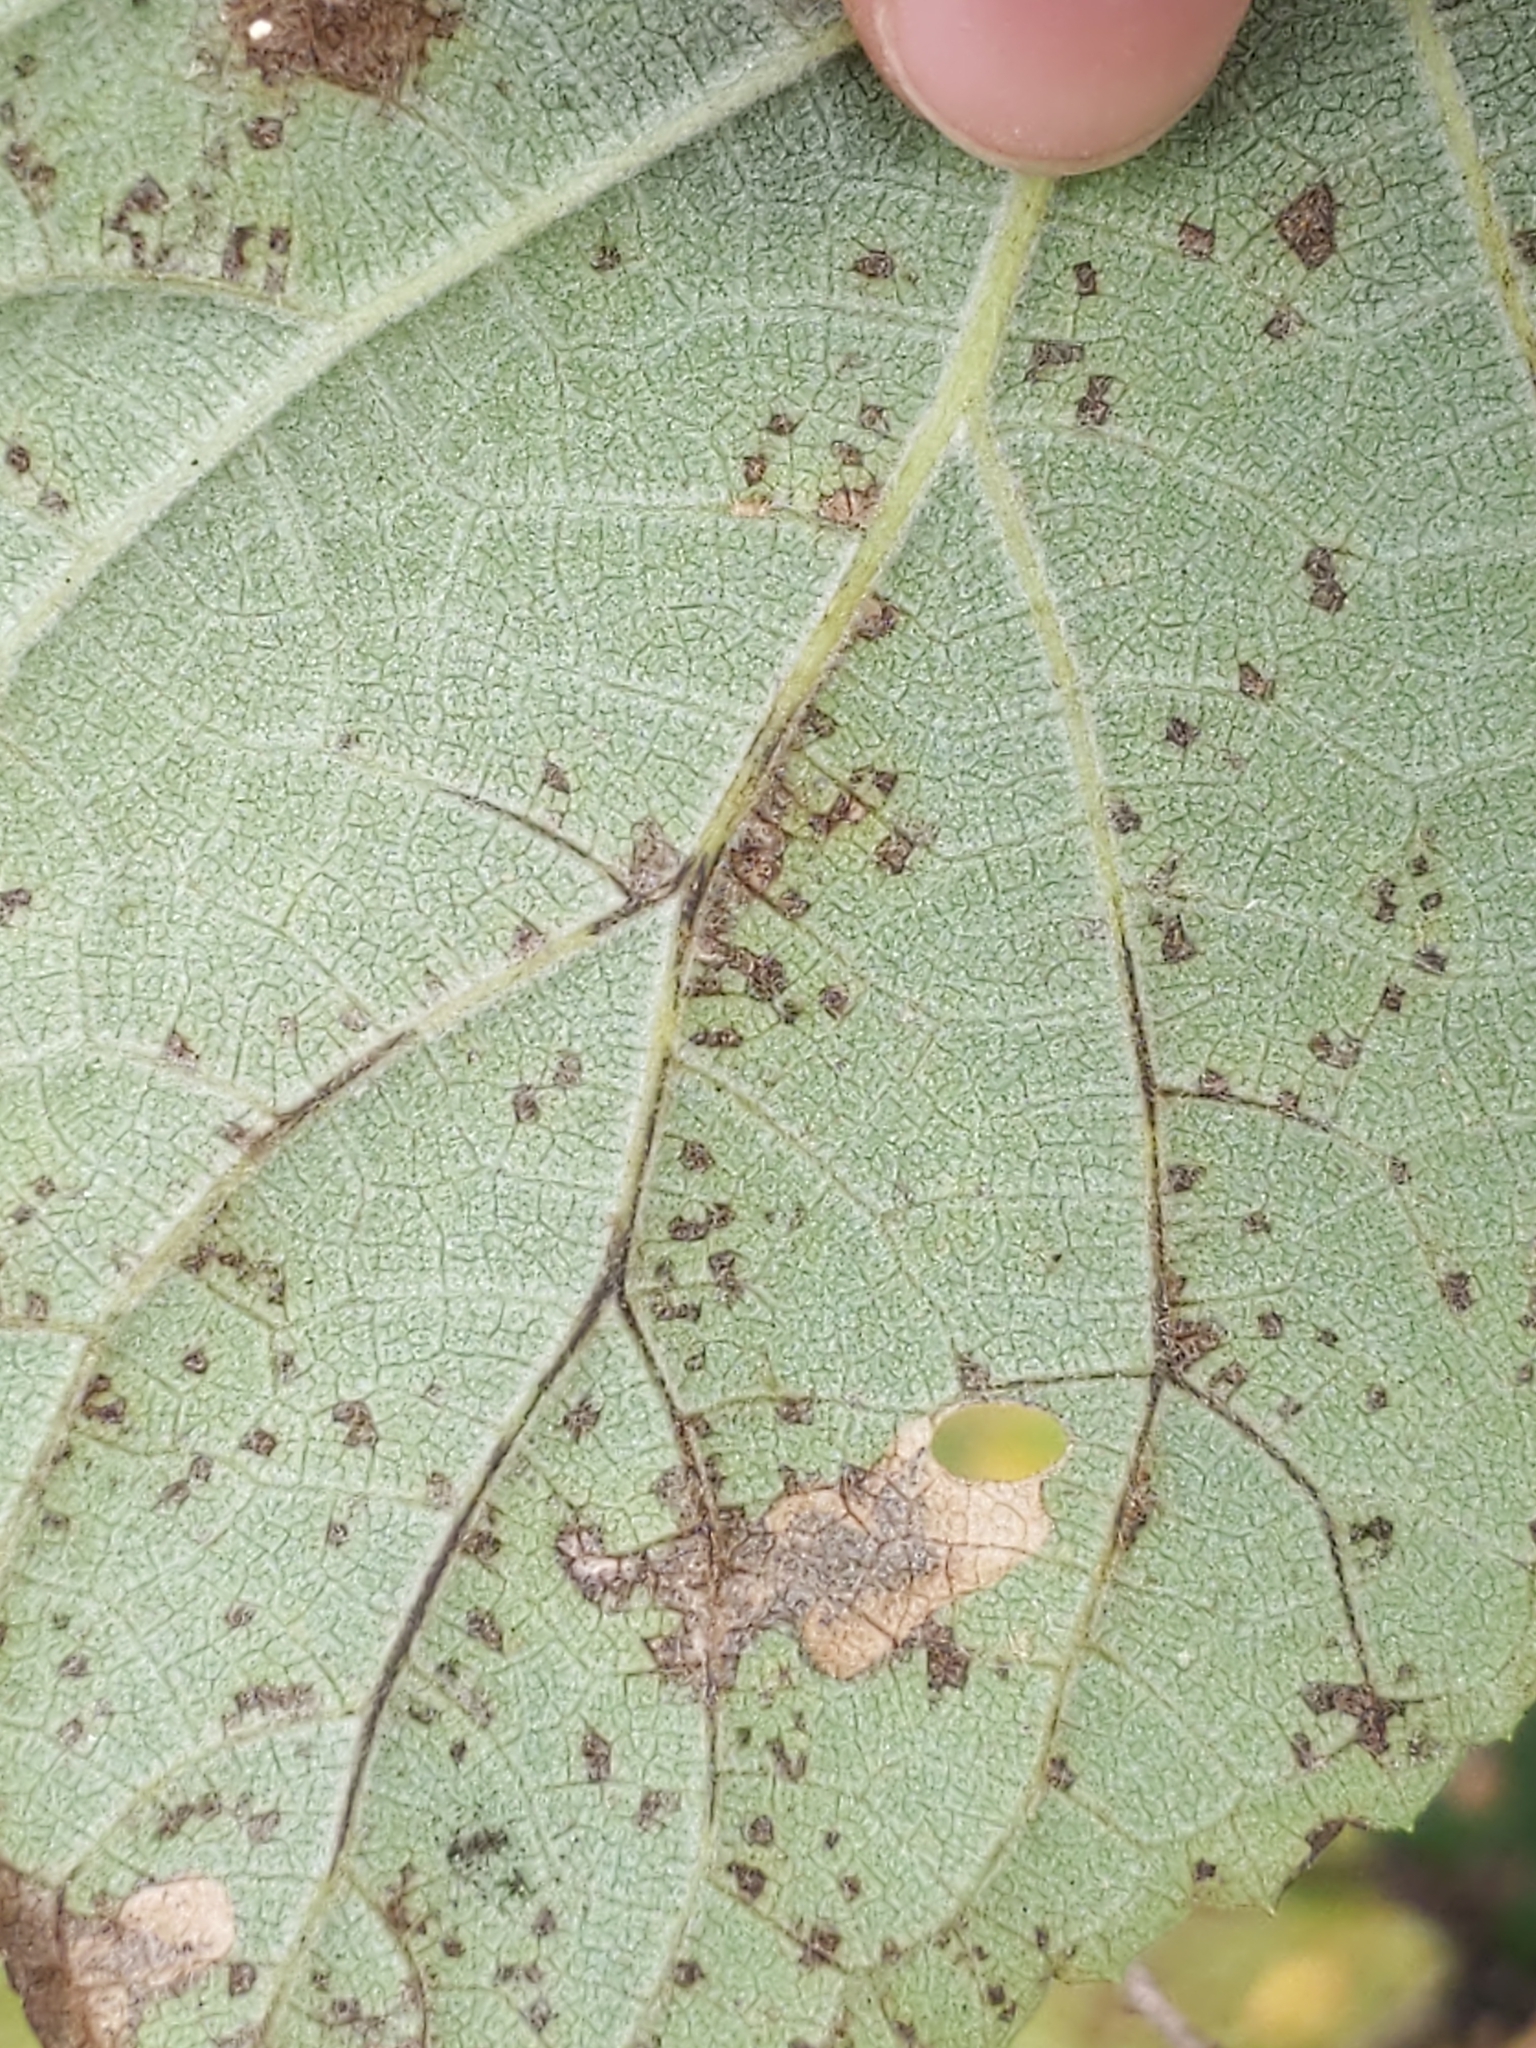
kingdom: Animalia
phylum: Arthropoda
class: Insecta
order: Lepidoptera
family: Heliozelidae
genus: Aspilanta
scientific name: Aspilanta hydrangaeella
